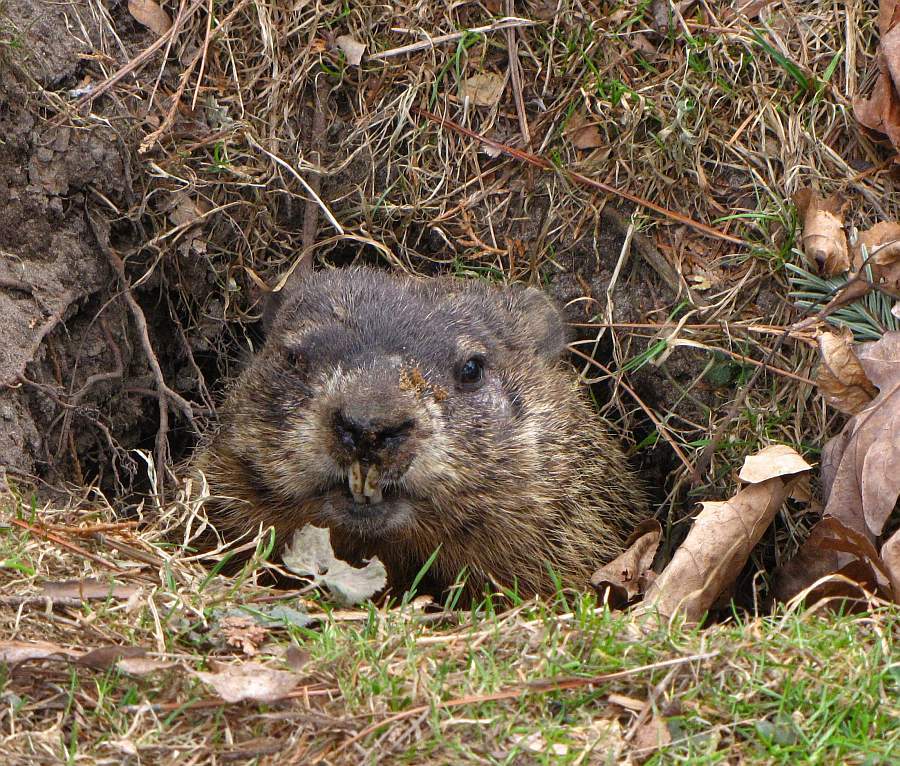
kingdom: Animalia
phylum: Chordata
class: Mammalia
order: Rodentia
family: Sciuridae
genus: Marmota
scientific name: Marmota monax
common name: Groundhog
